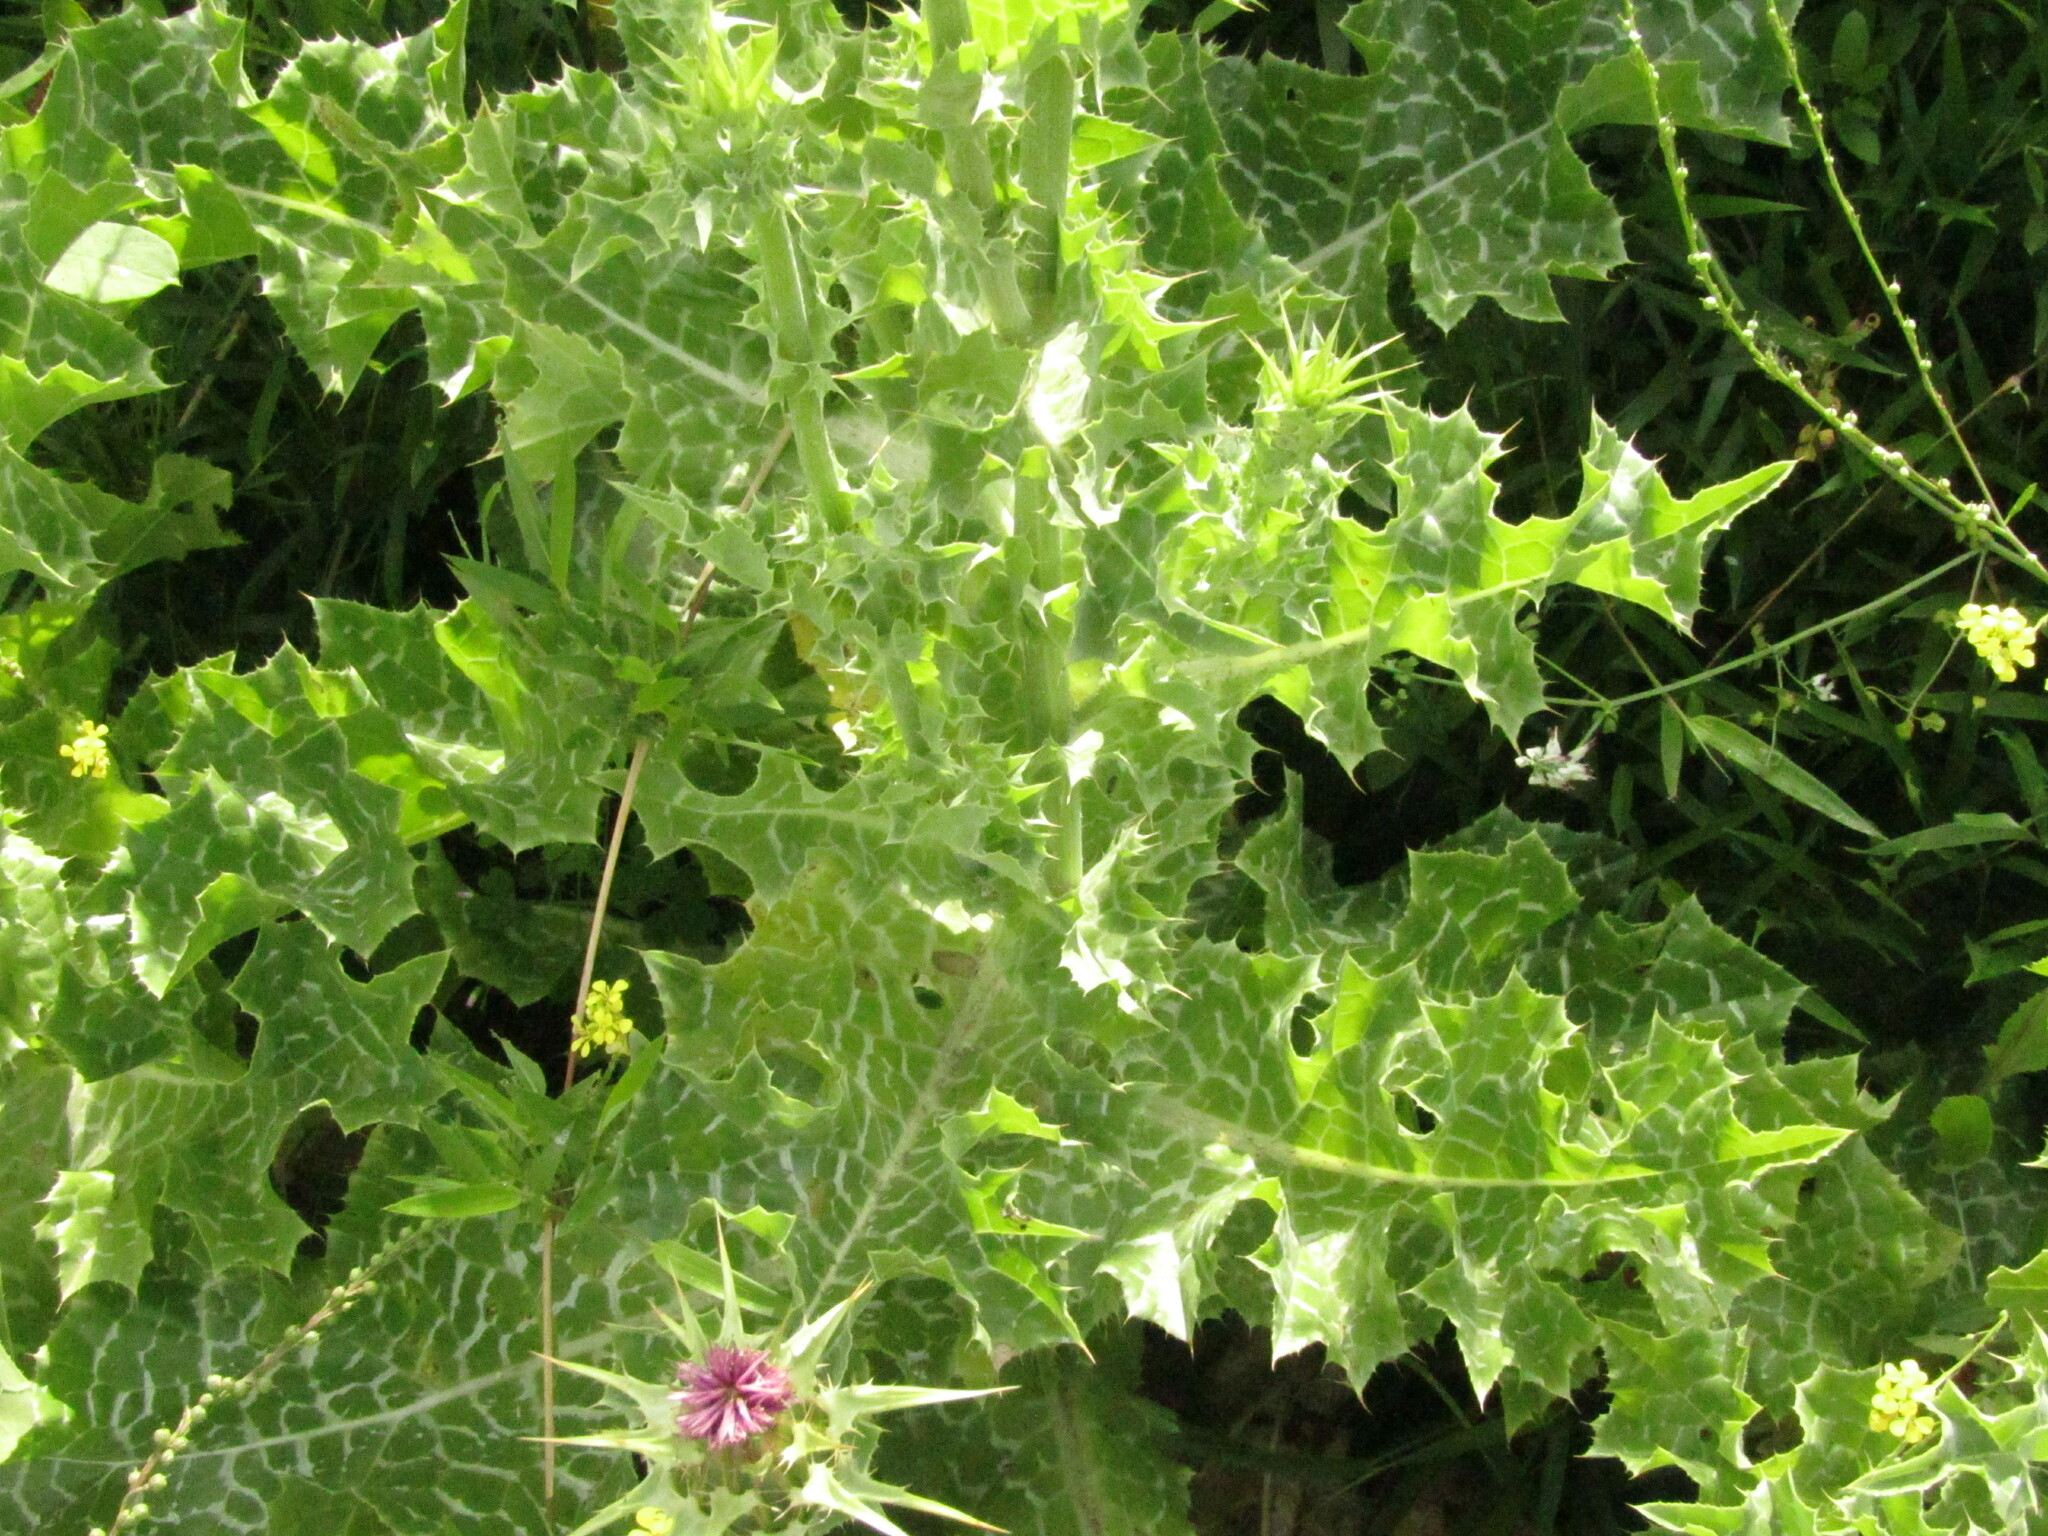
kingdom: Plantae
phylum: Tracheophyta
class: Magnoliopsida
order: Asterales
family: Asteraceae
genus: Silybum
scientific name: Silybum marianum
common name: Milk thistle
